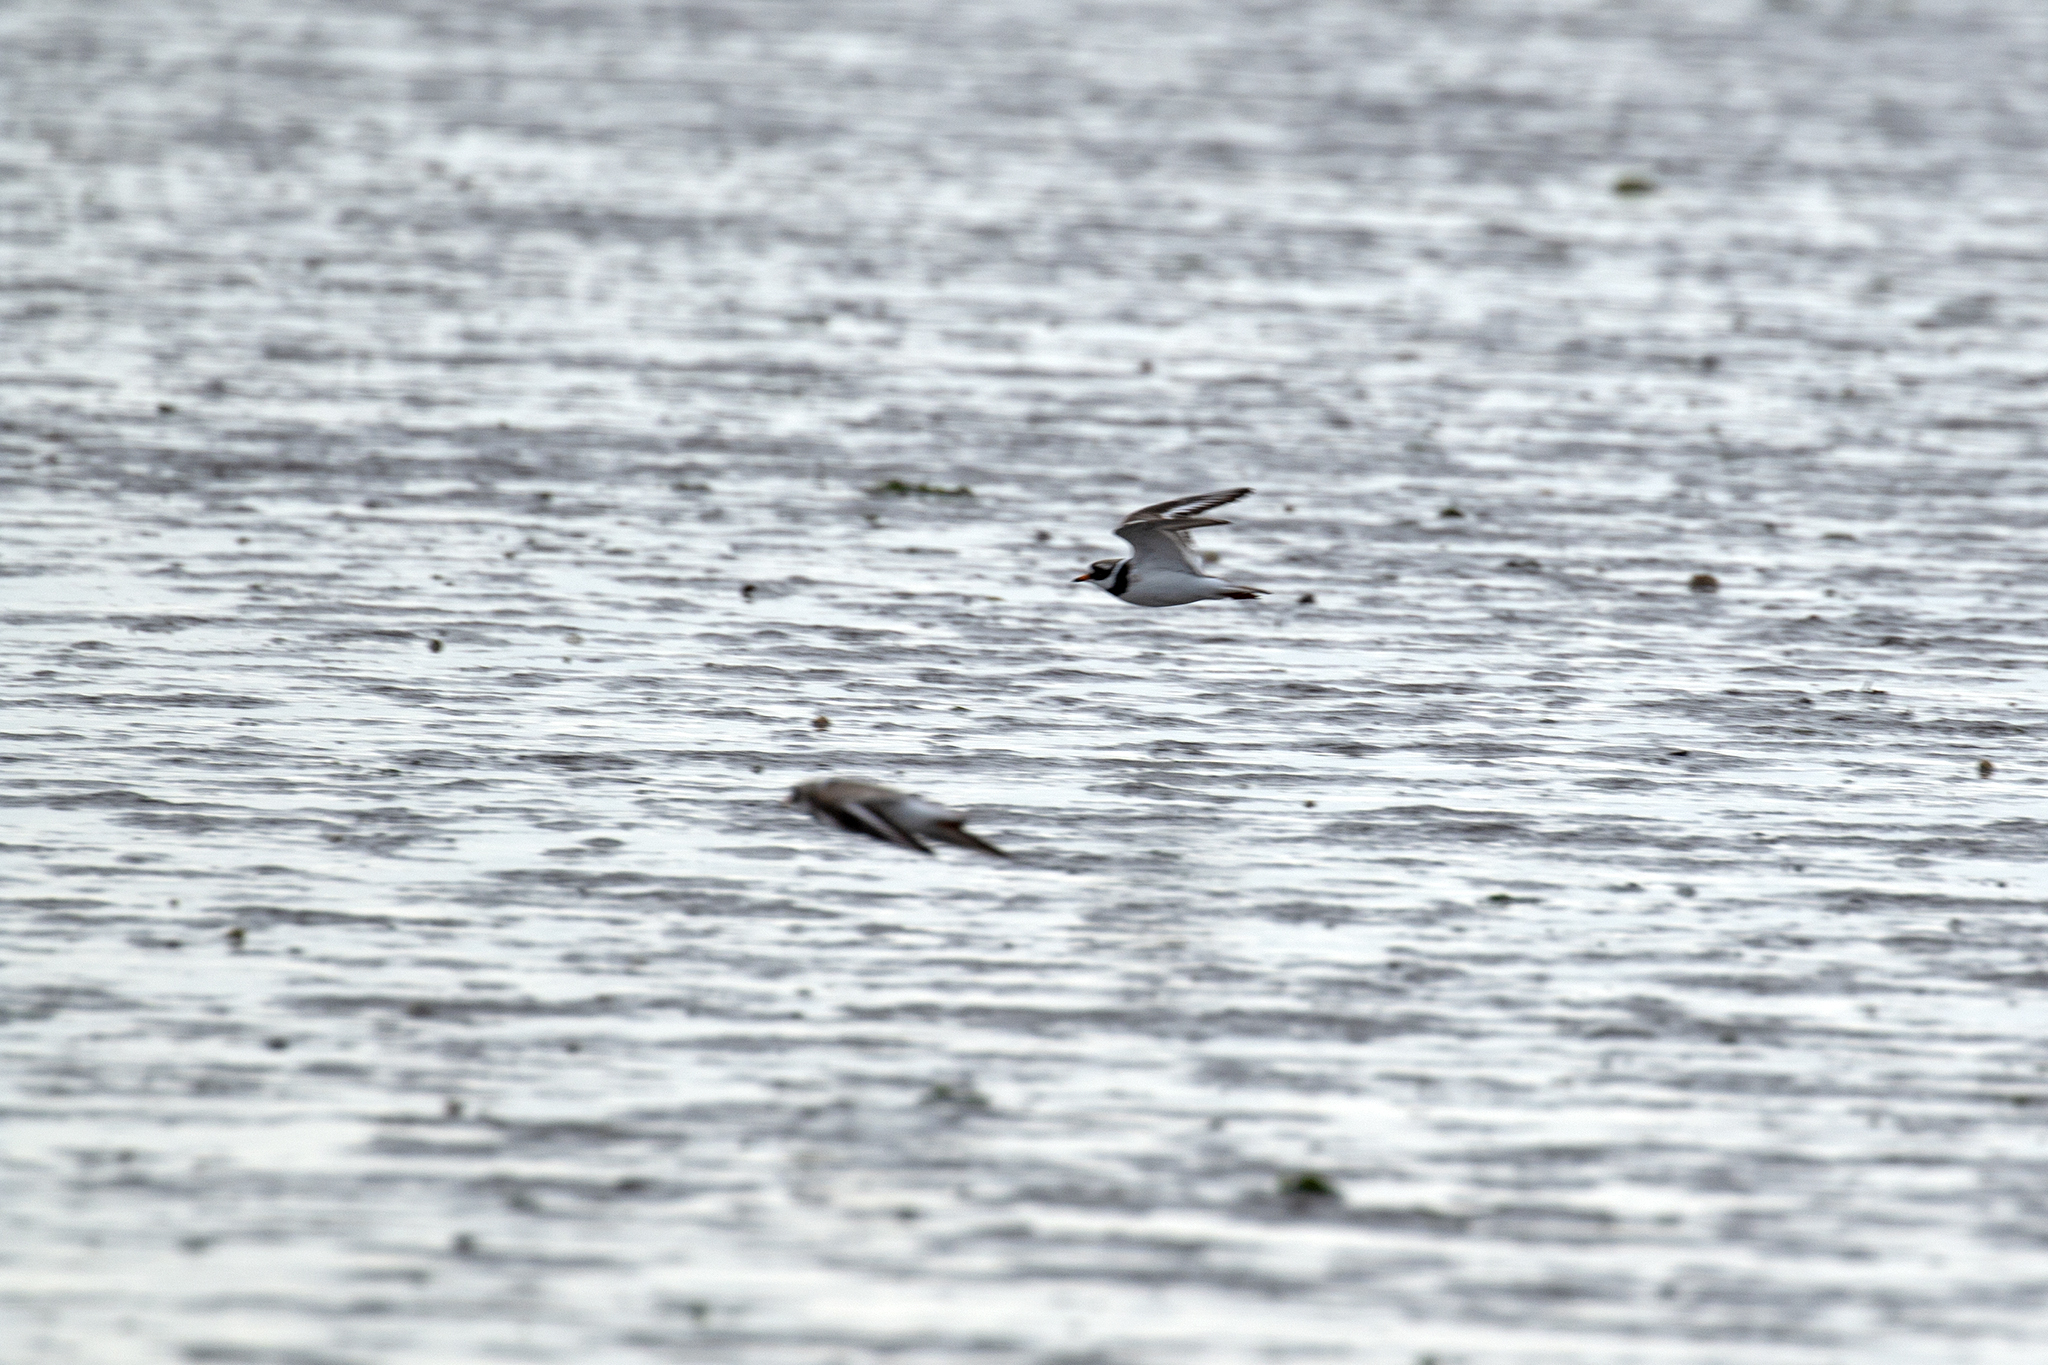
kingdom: Animalia
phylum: Chordata
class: Aves
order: Charadriiformes
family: Charadriidae
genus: Charadrius
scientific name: Charadrius hiaticula
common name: Common ringed plover
